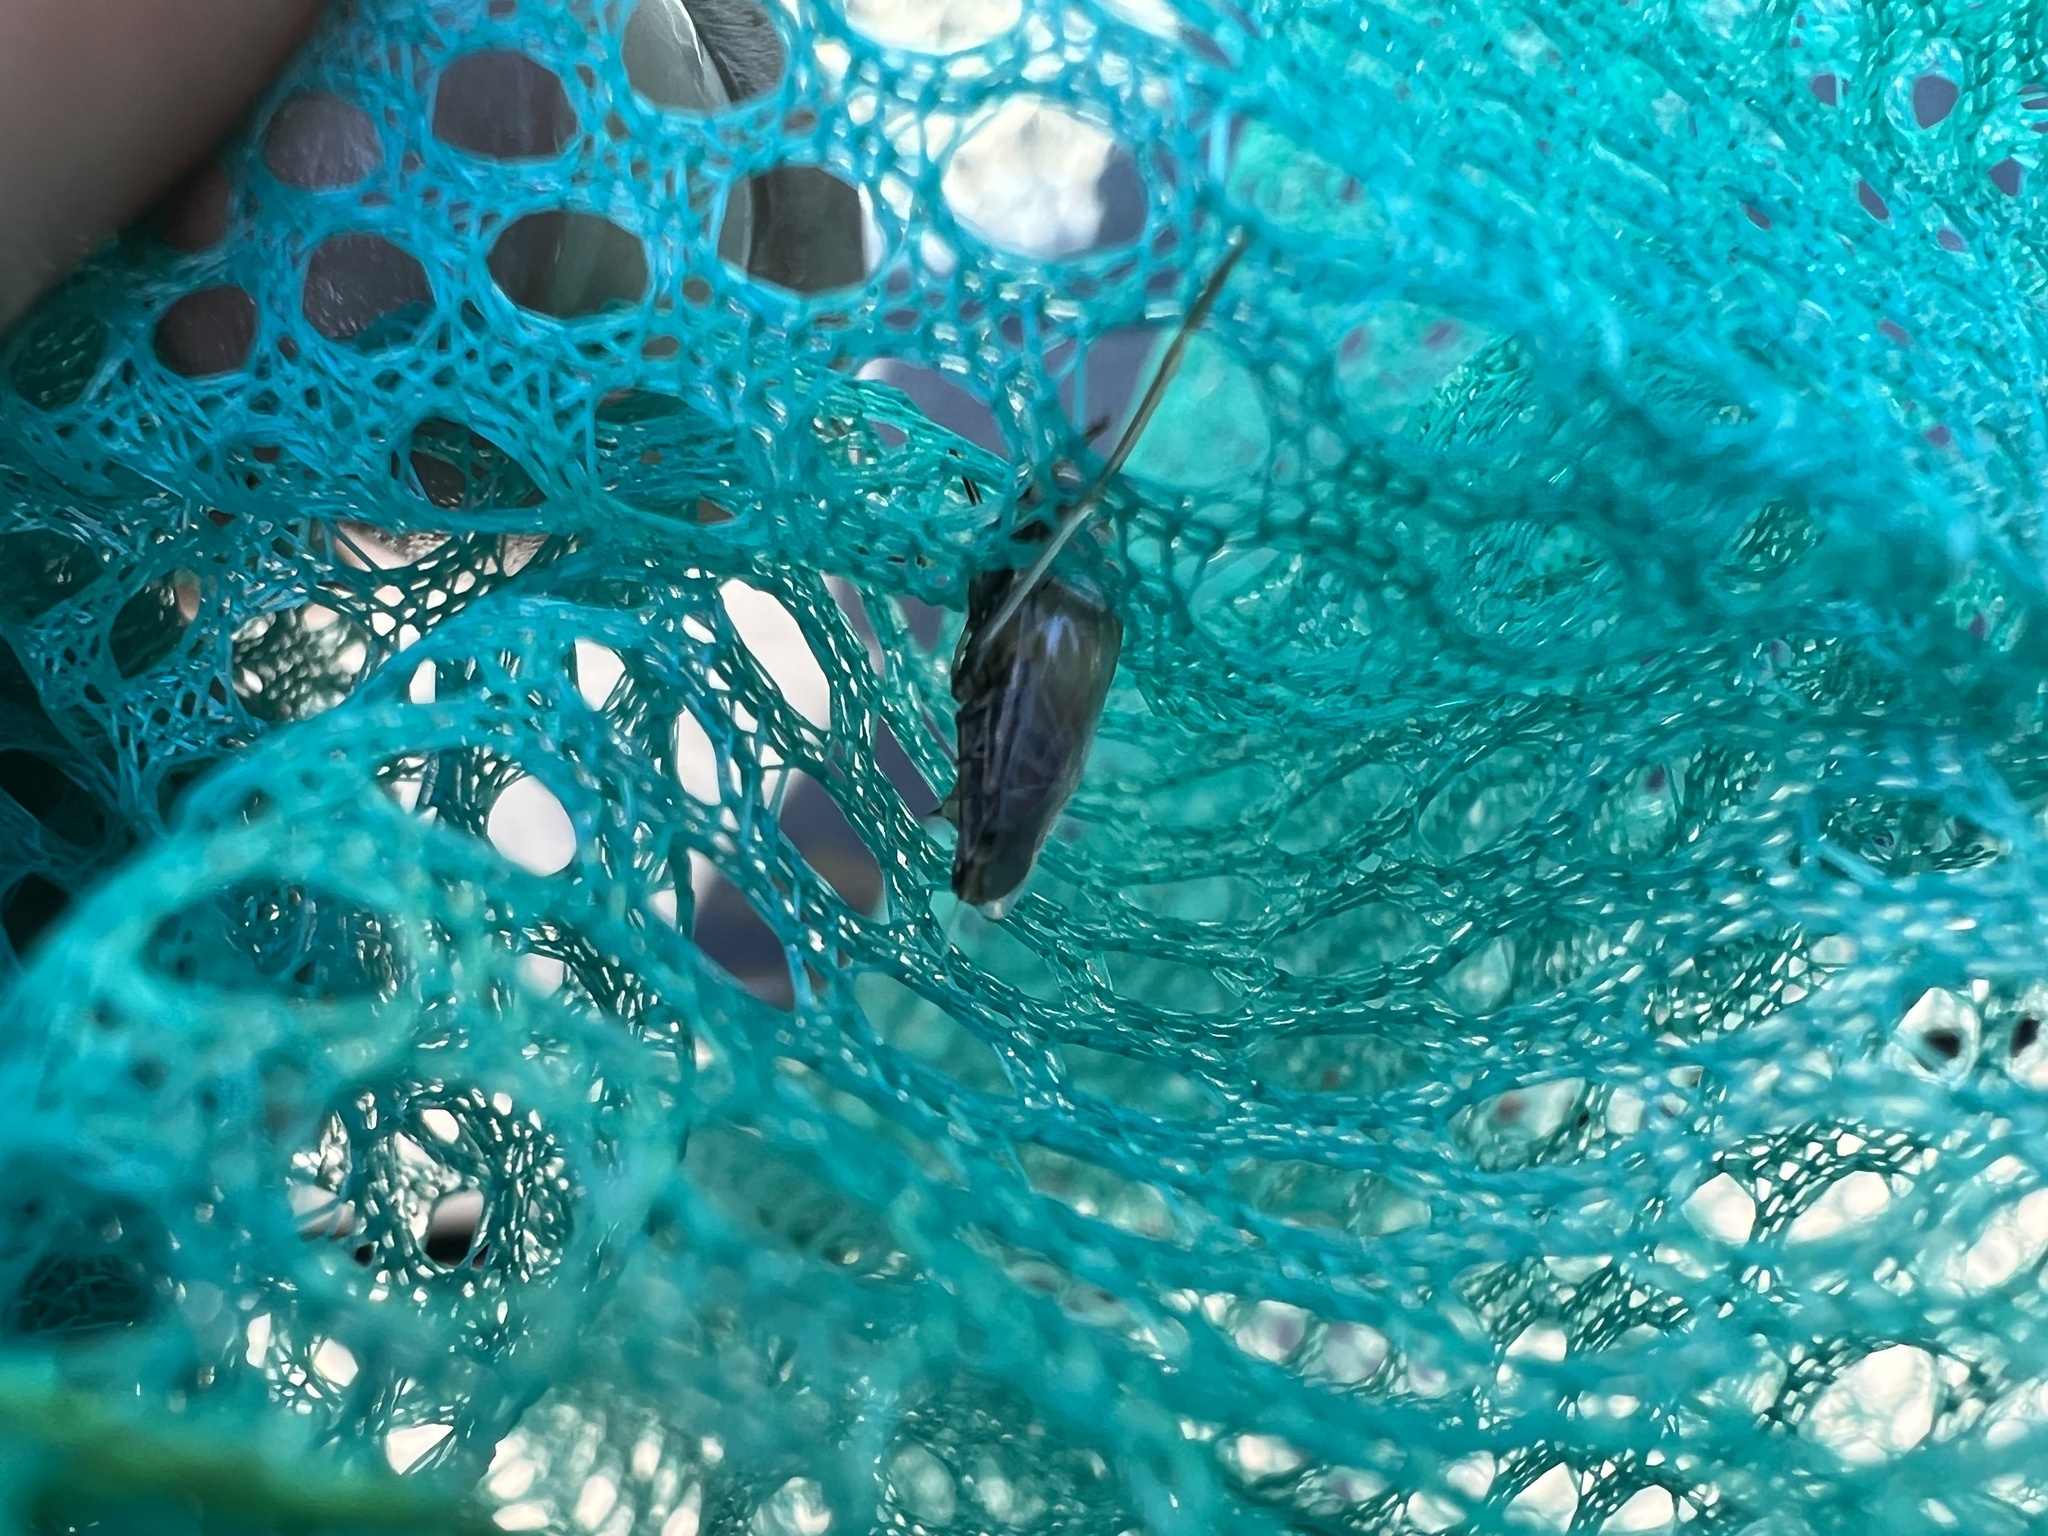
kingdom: Animalia
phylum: Arthropoda
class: Insecta
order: Hemiptera
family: Notonectidae
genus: Anisops
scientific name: Anisops sardeus
